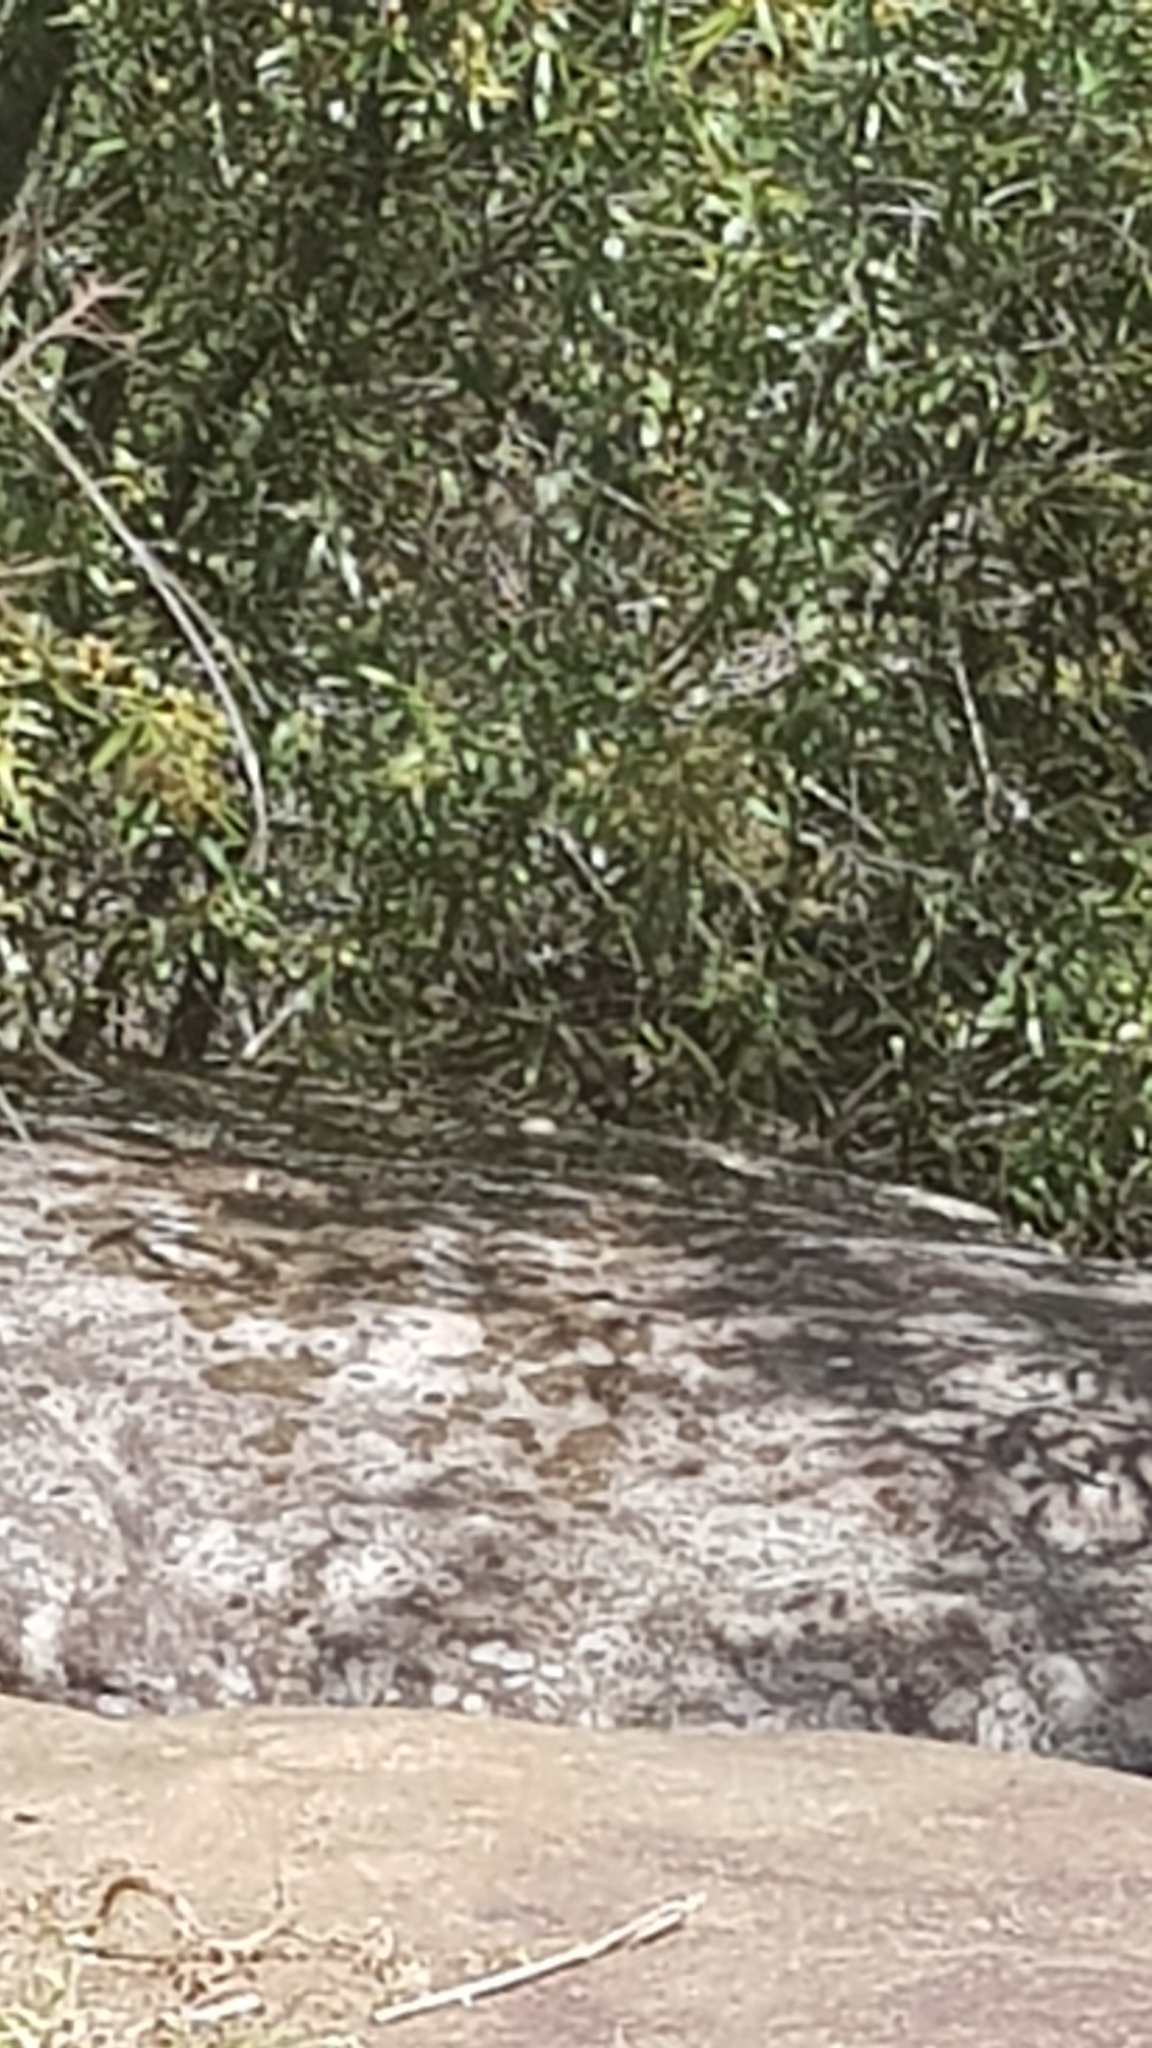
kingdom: Animalia
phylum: Chordata
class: Squamata
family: Agamidae
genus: Intellagama
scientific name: Intellagama lesueurii
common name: Eastern water dragon
